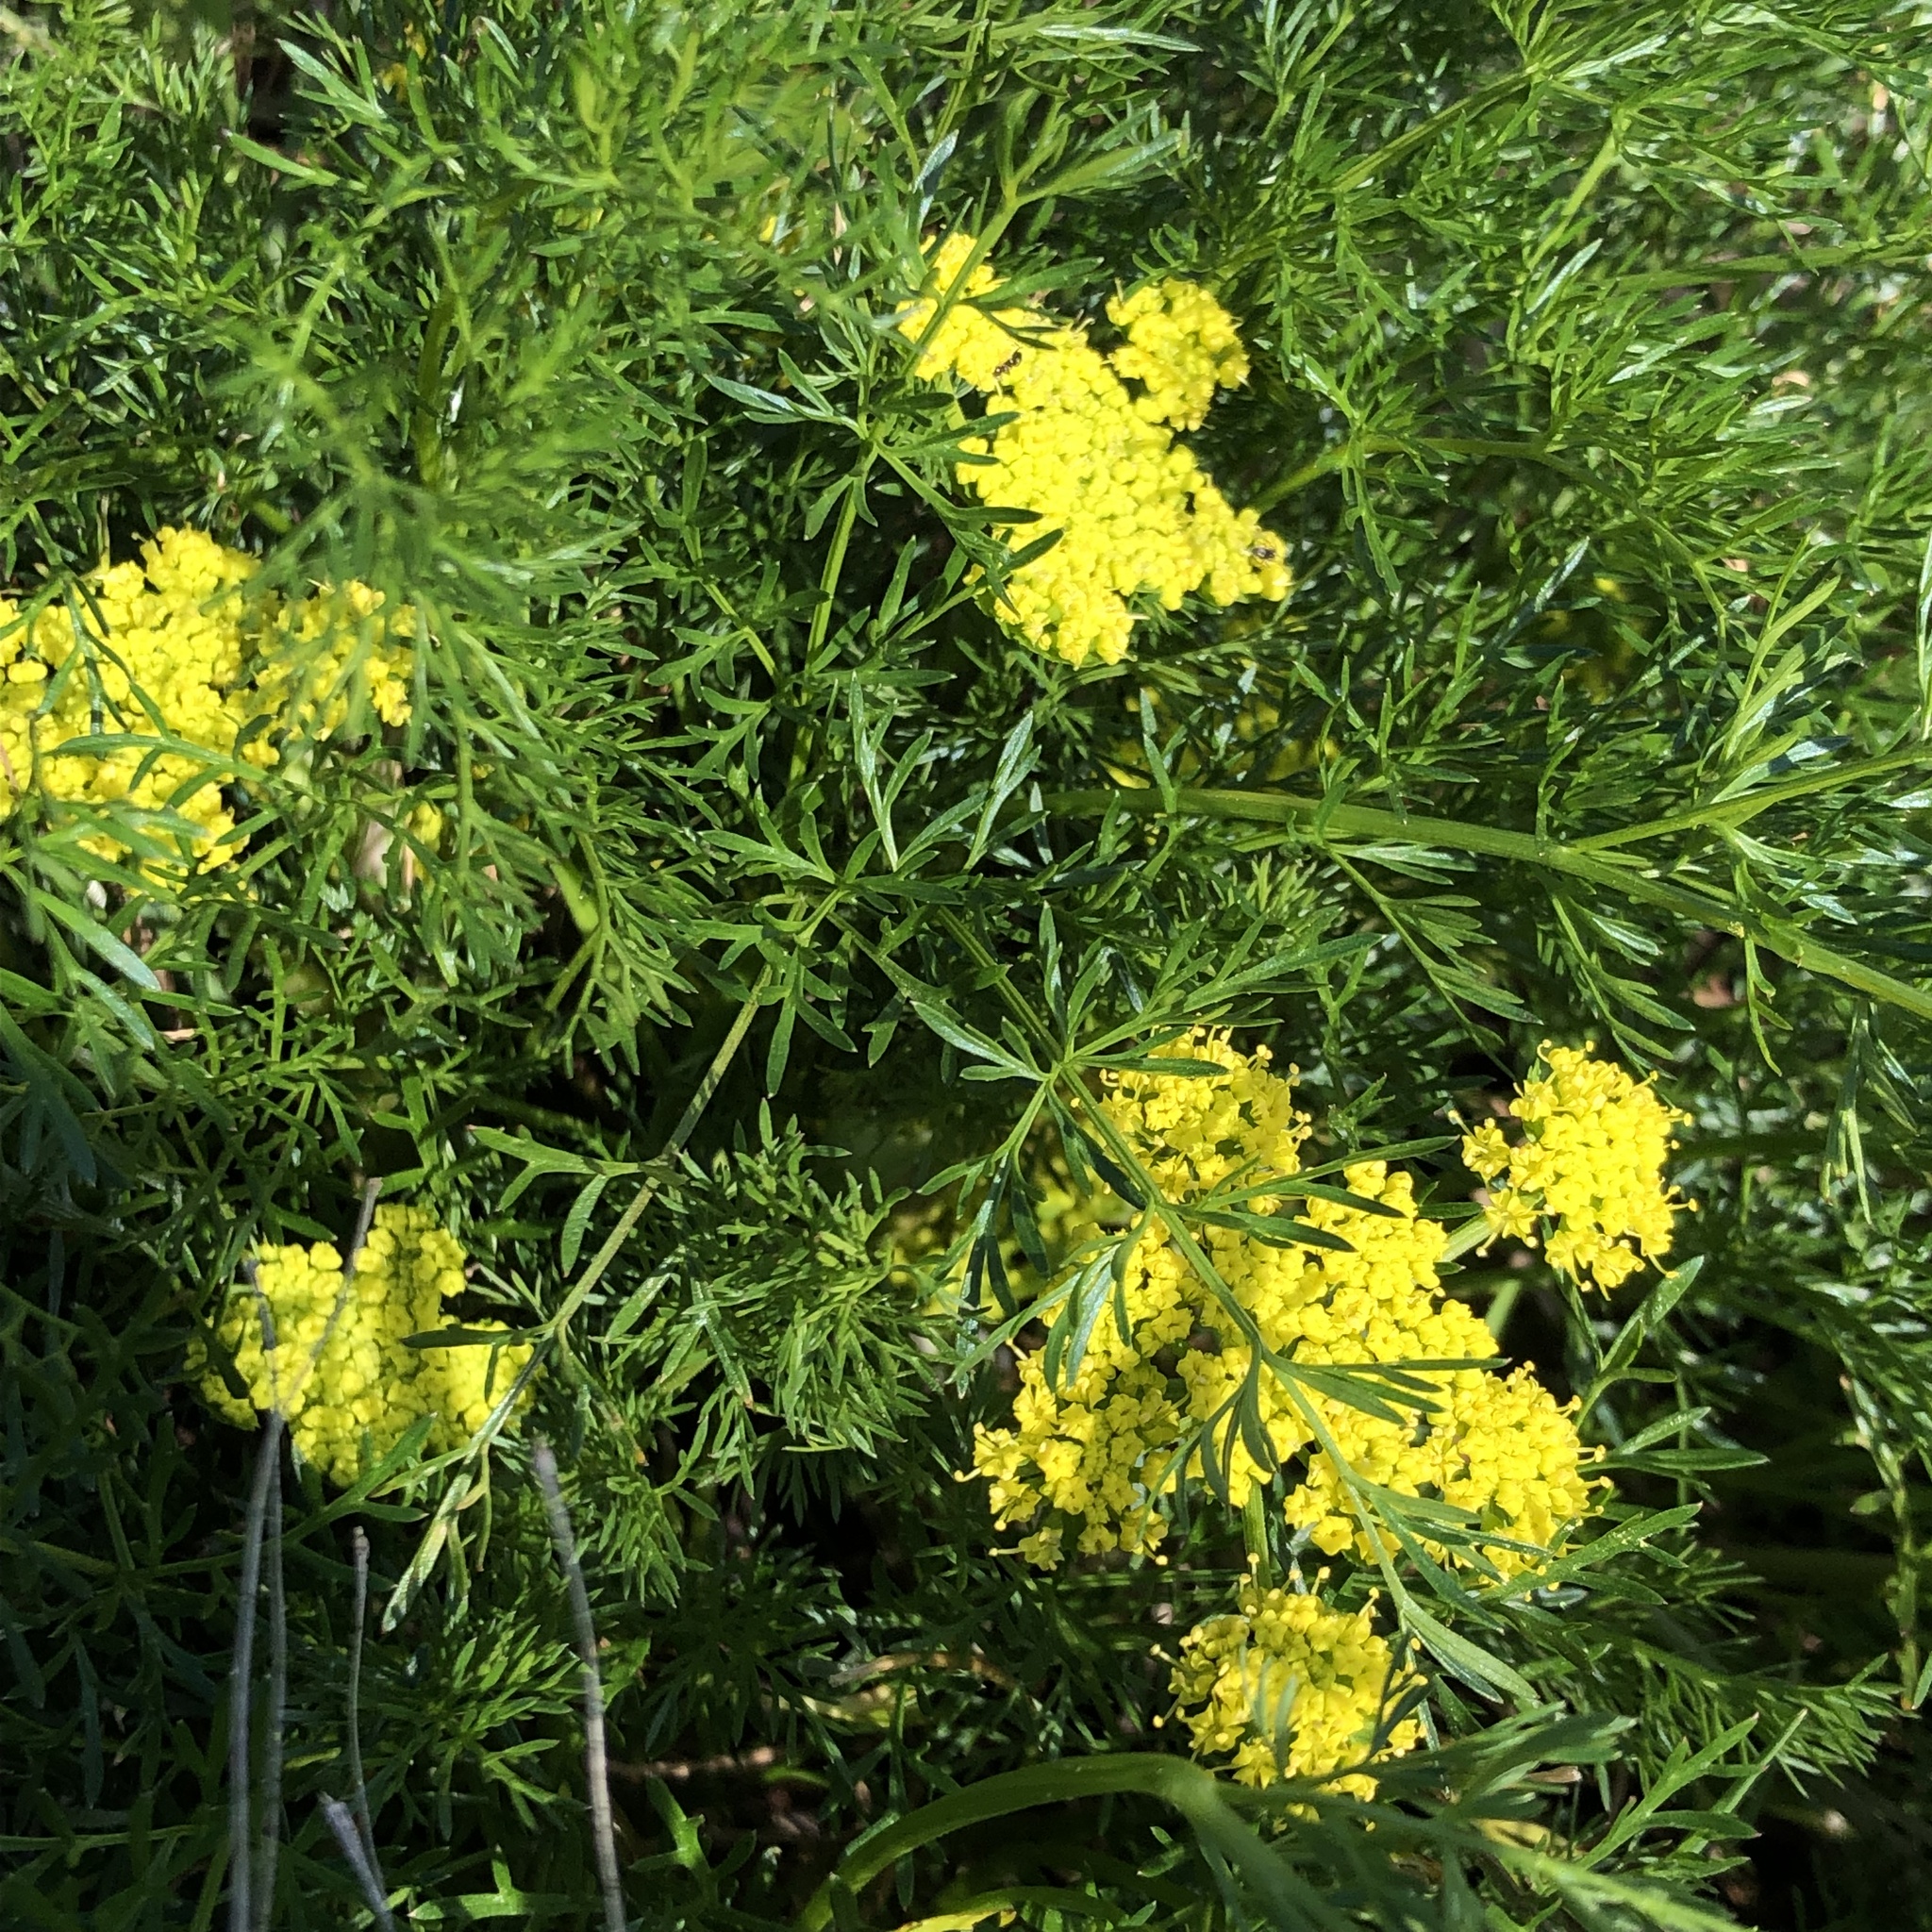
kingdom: Plantae
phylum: Tracheophyta
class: Magnoliopsida
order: Apiales
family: Apiaceae
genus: Lomatium
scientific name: Lomatium utriculatum
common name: Fine-leaf desert-parsley
